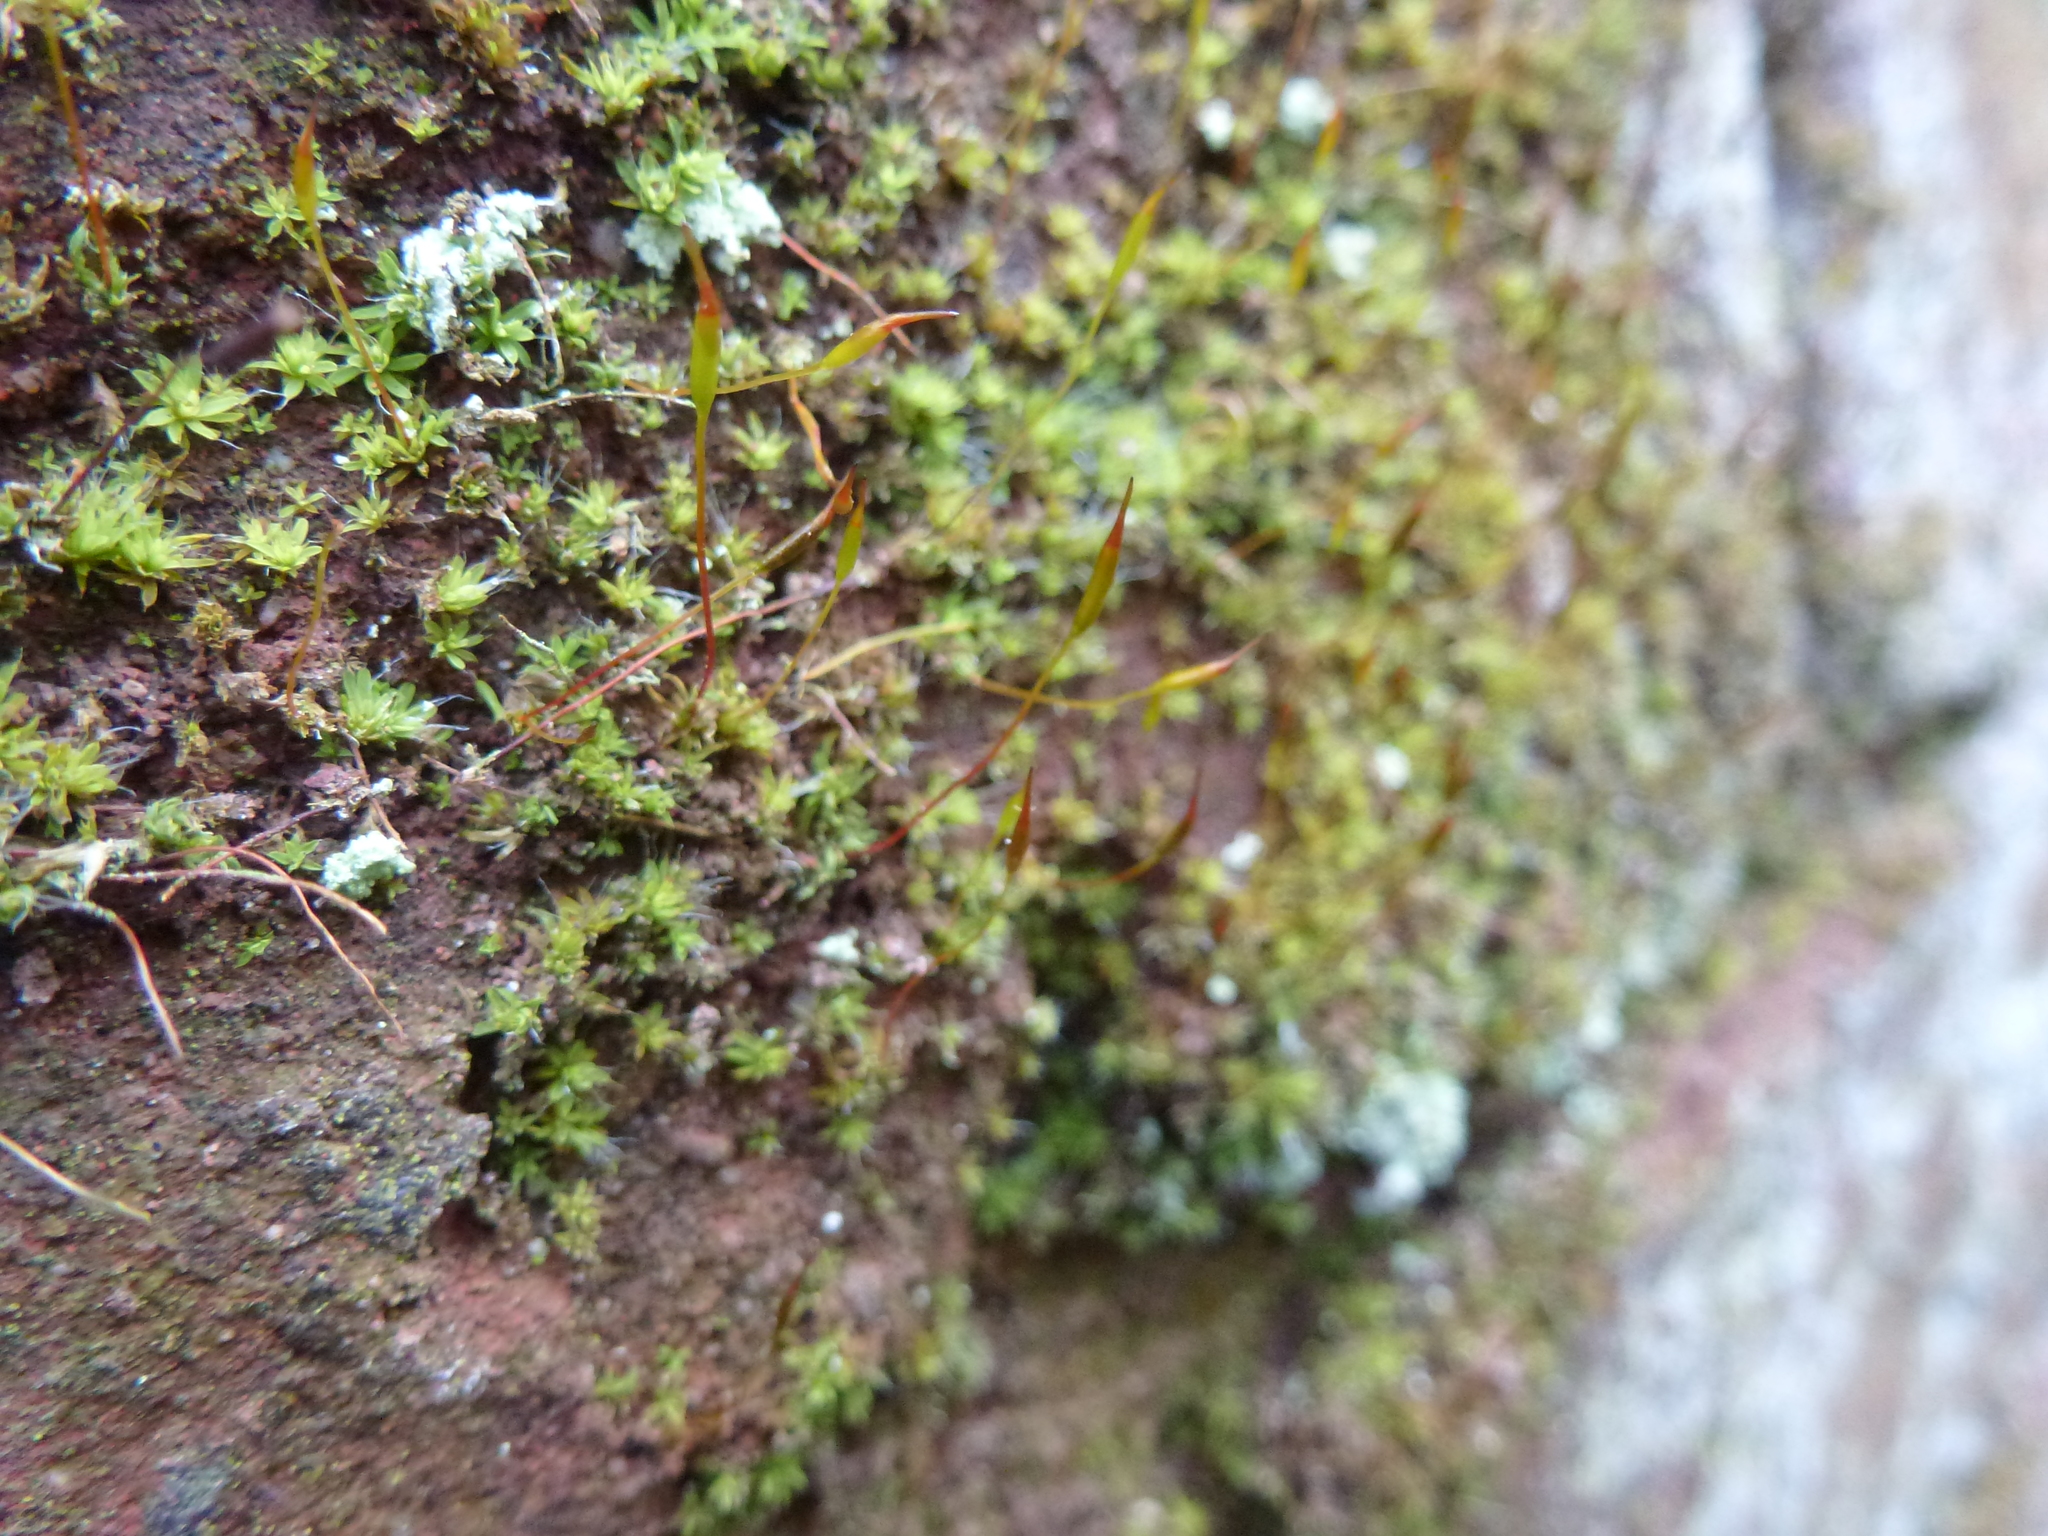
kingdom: Plantae
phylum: Bryophyta
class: Bryopsida
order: Pottiales
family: Pottiaceae
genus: Tortula
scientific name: Tortula muralis
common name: Wall screw-moss
